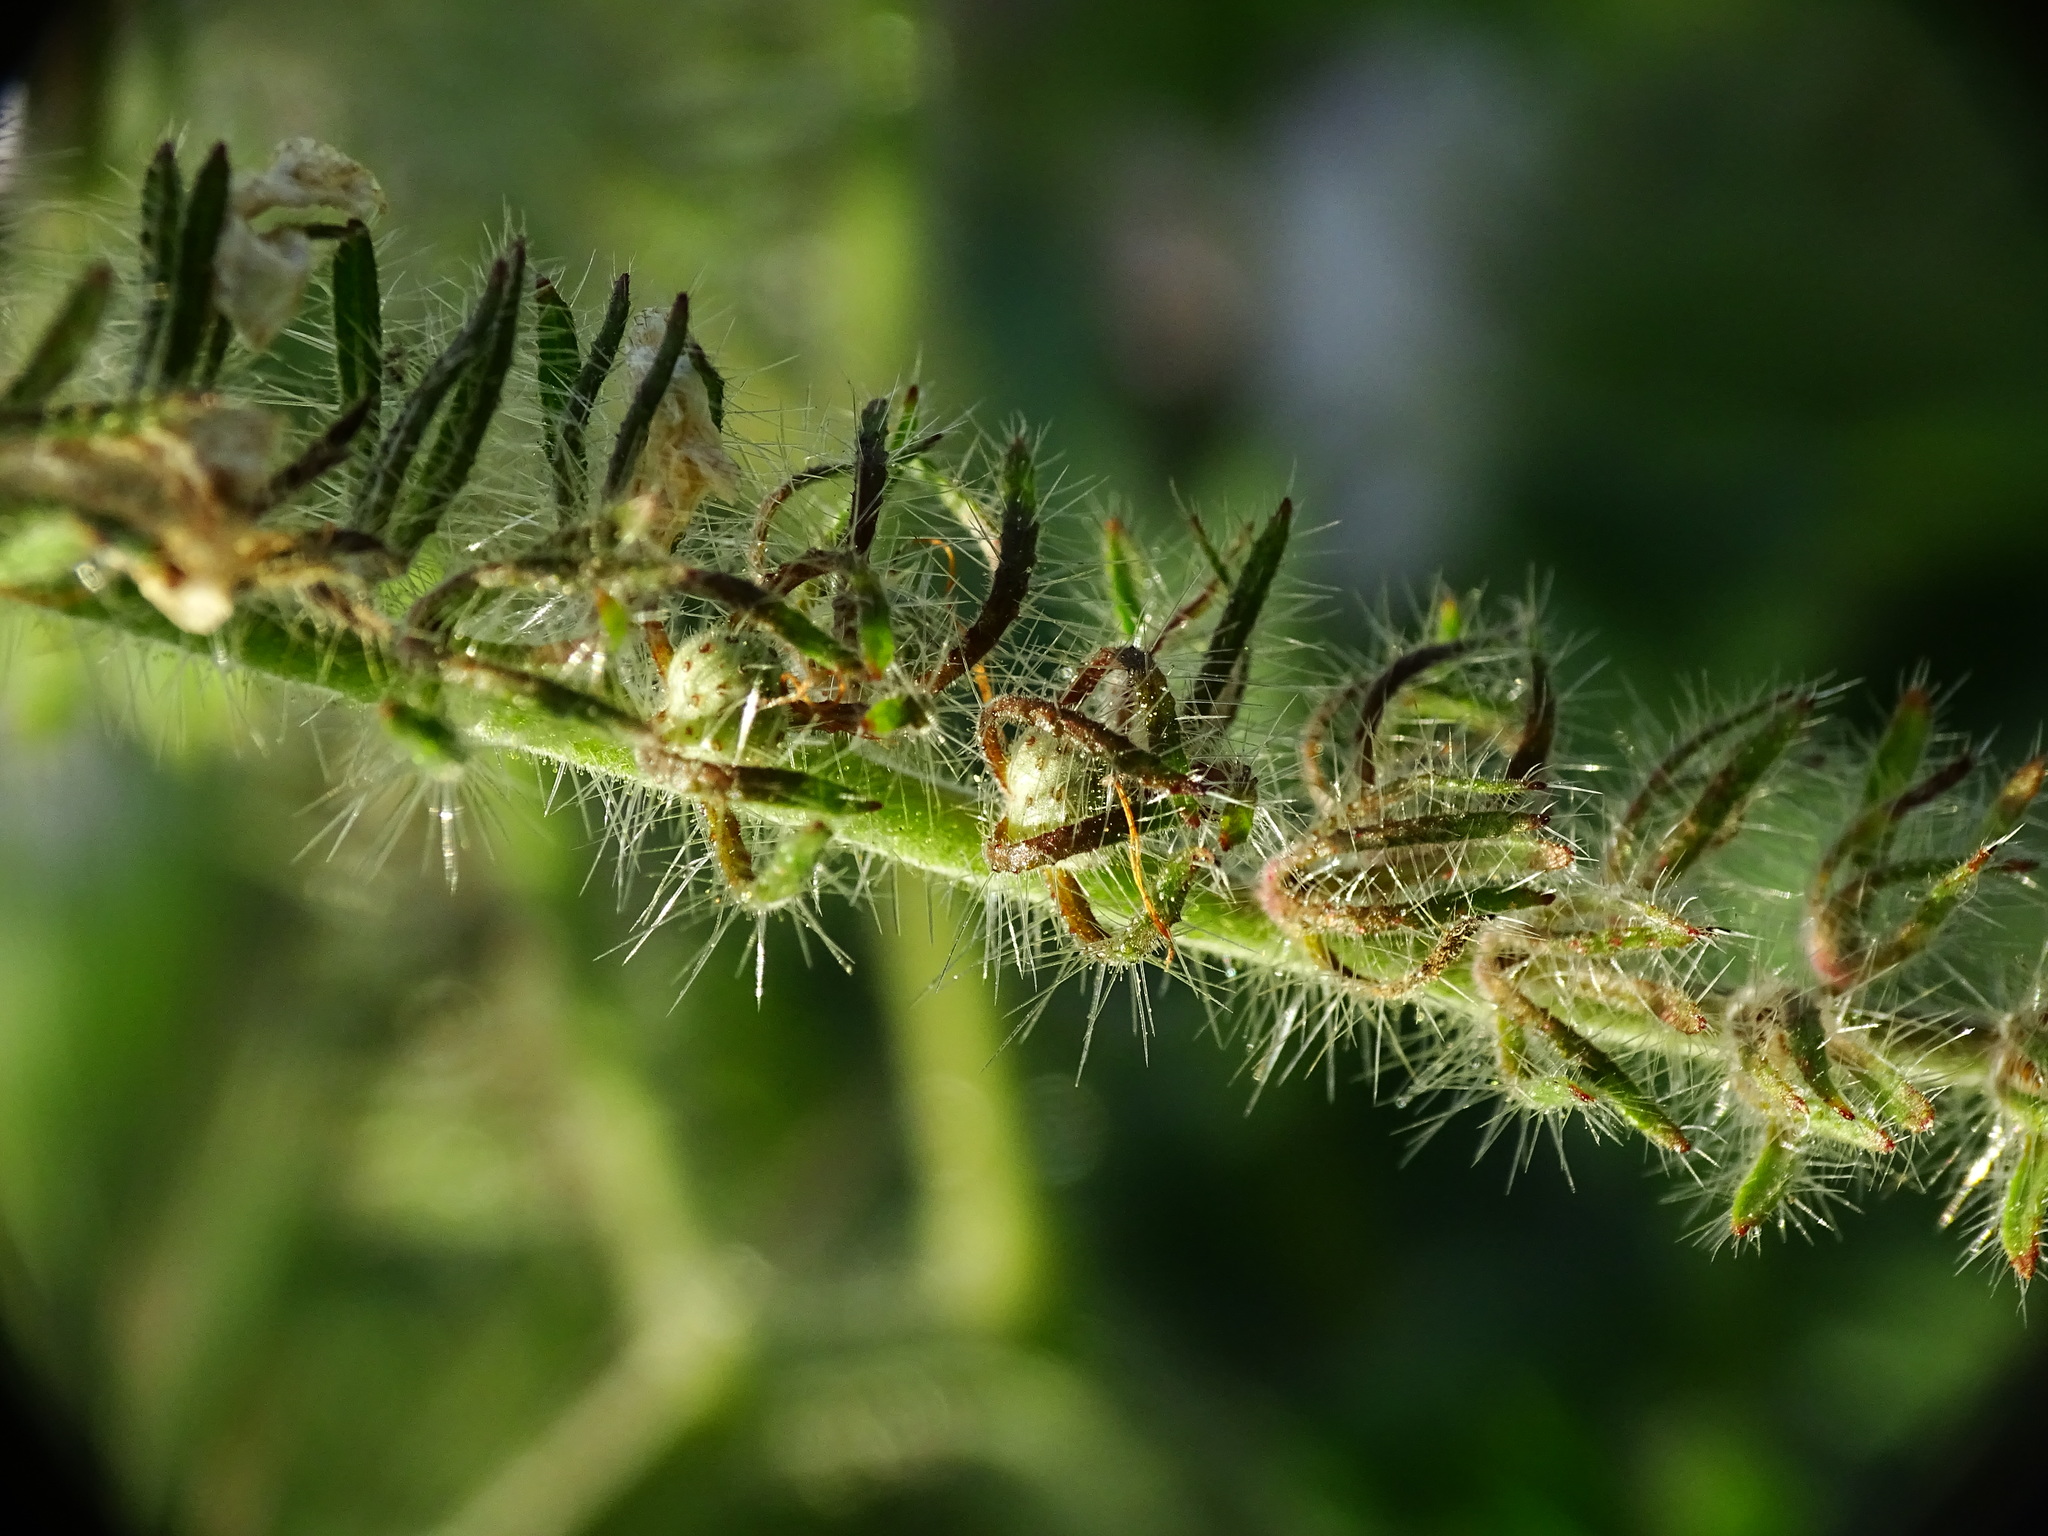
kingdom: Plantae
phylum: Tracheophyta
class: Magnoliopsida
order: Boraginales
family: Hydrophyllaceae
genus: Phacelia
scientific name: Phacelia cicutaria
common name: Caterpillar phacelia
